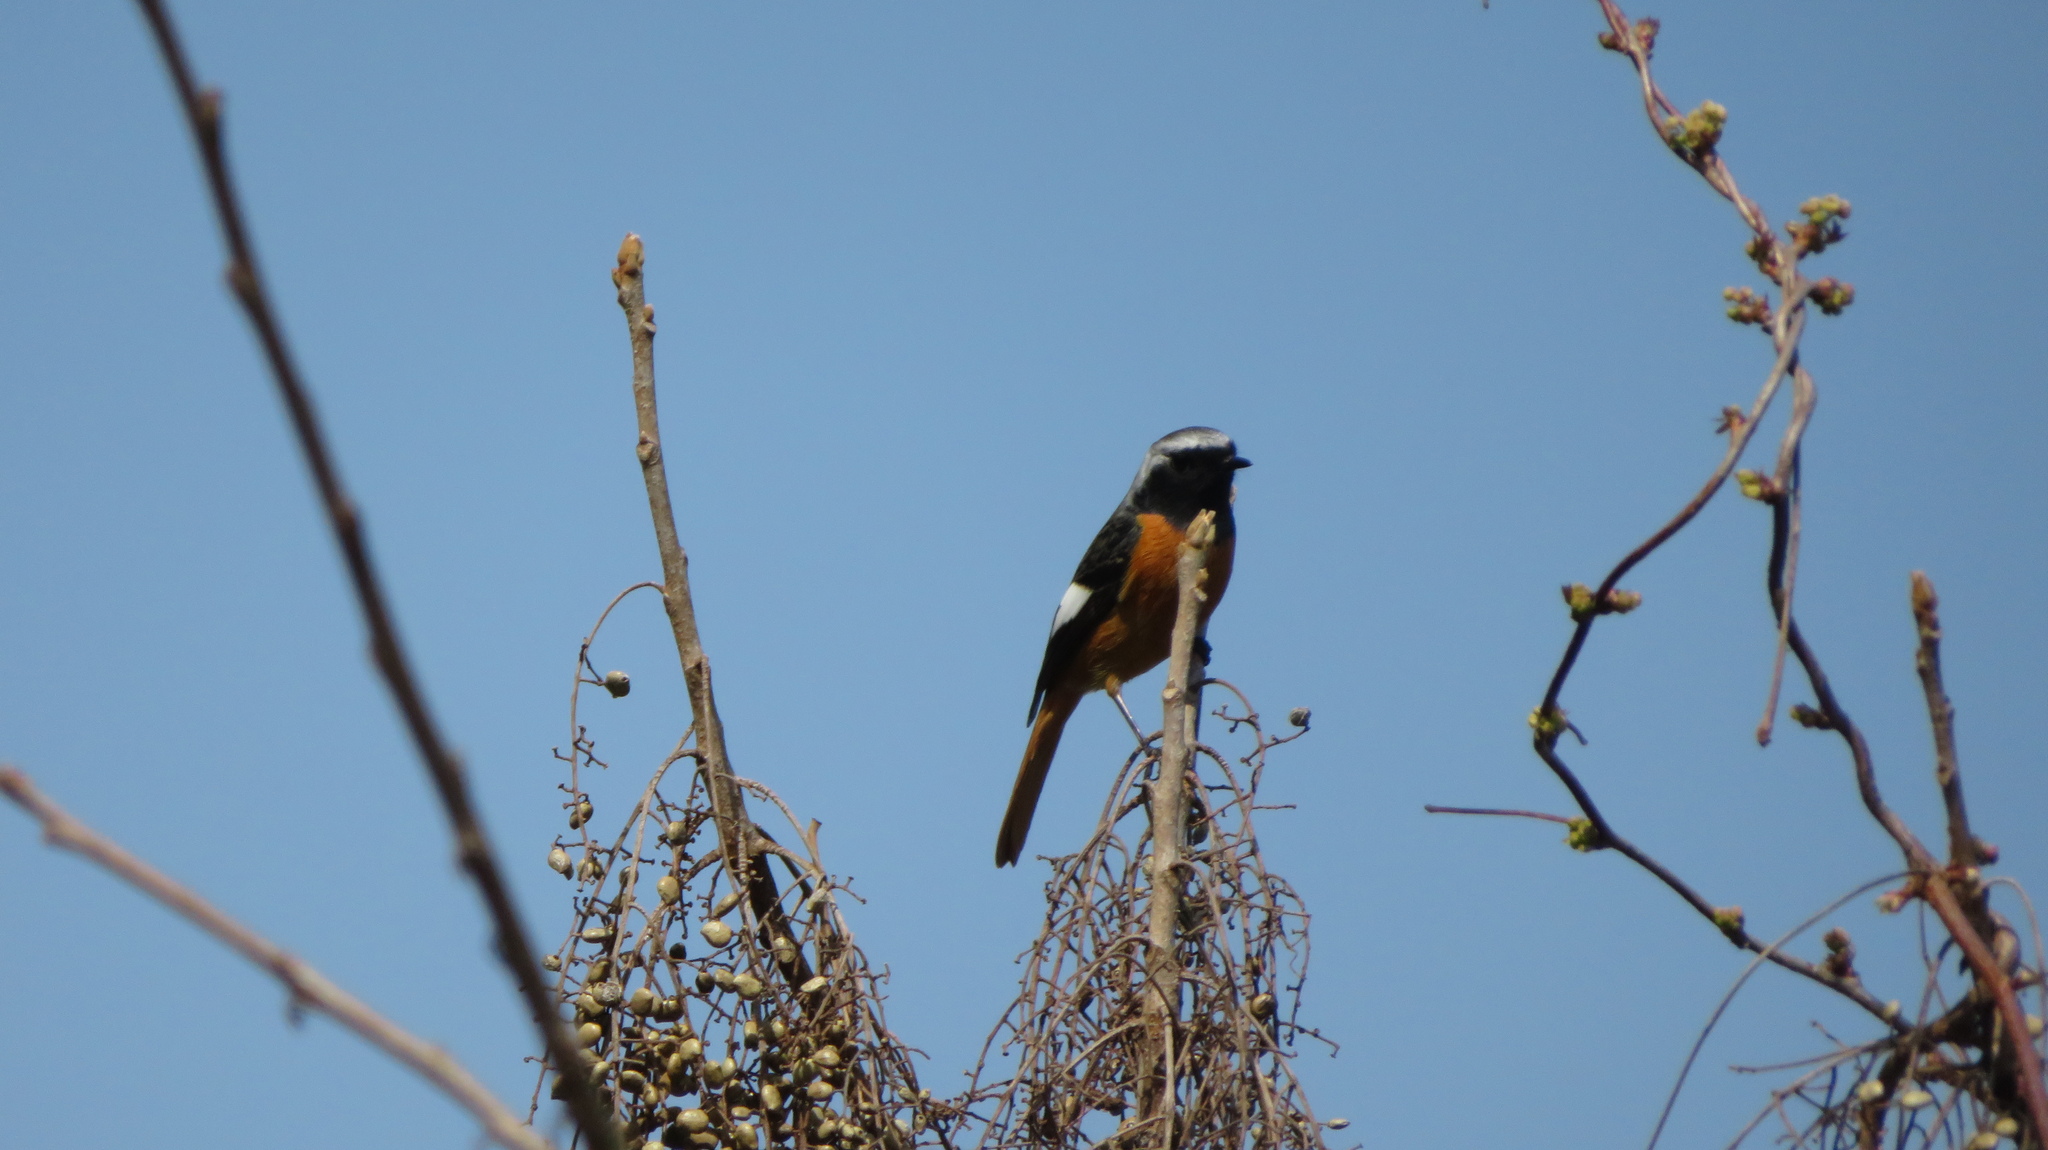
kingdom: Animalia
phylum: Chordata
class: Aves
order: Passeriformes
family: Muscicapidae
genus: Phoenicurus
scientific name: Phoenicurus auroreus
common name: Daurian redstart
